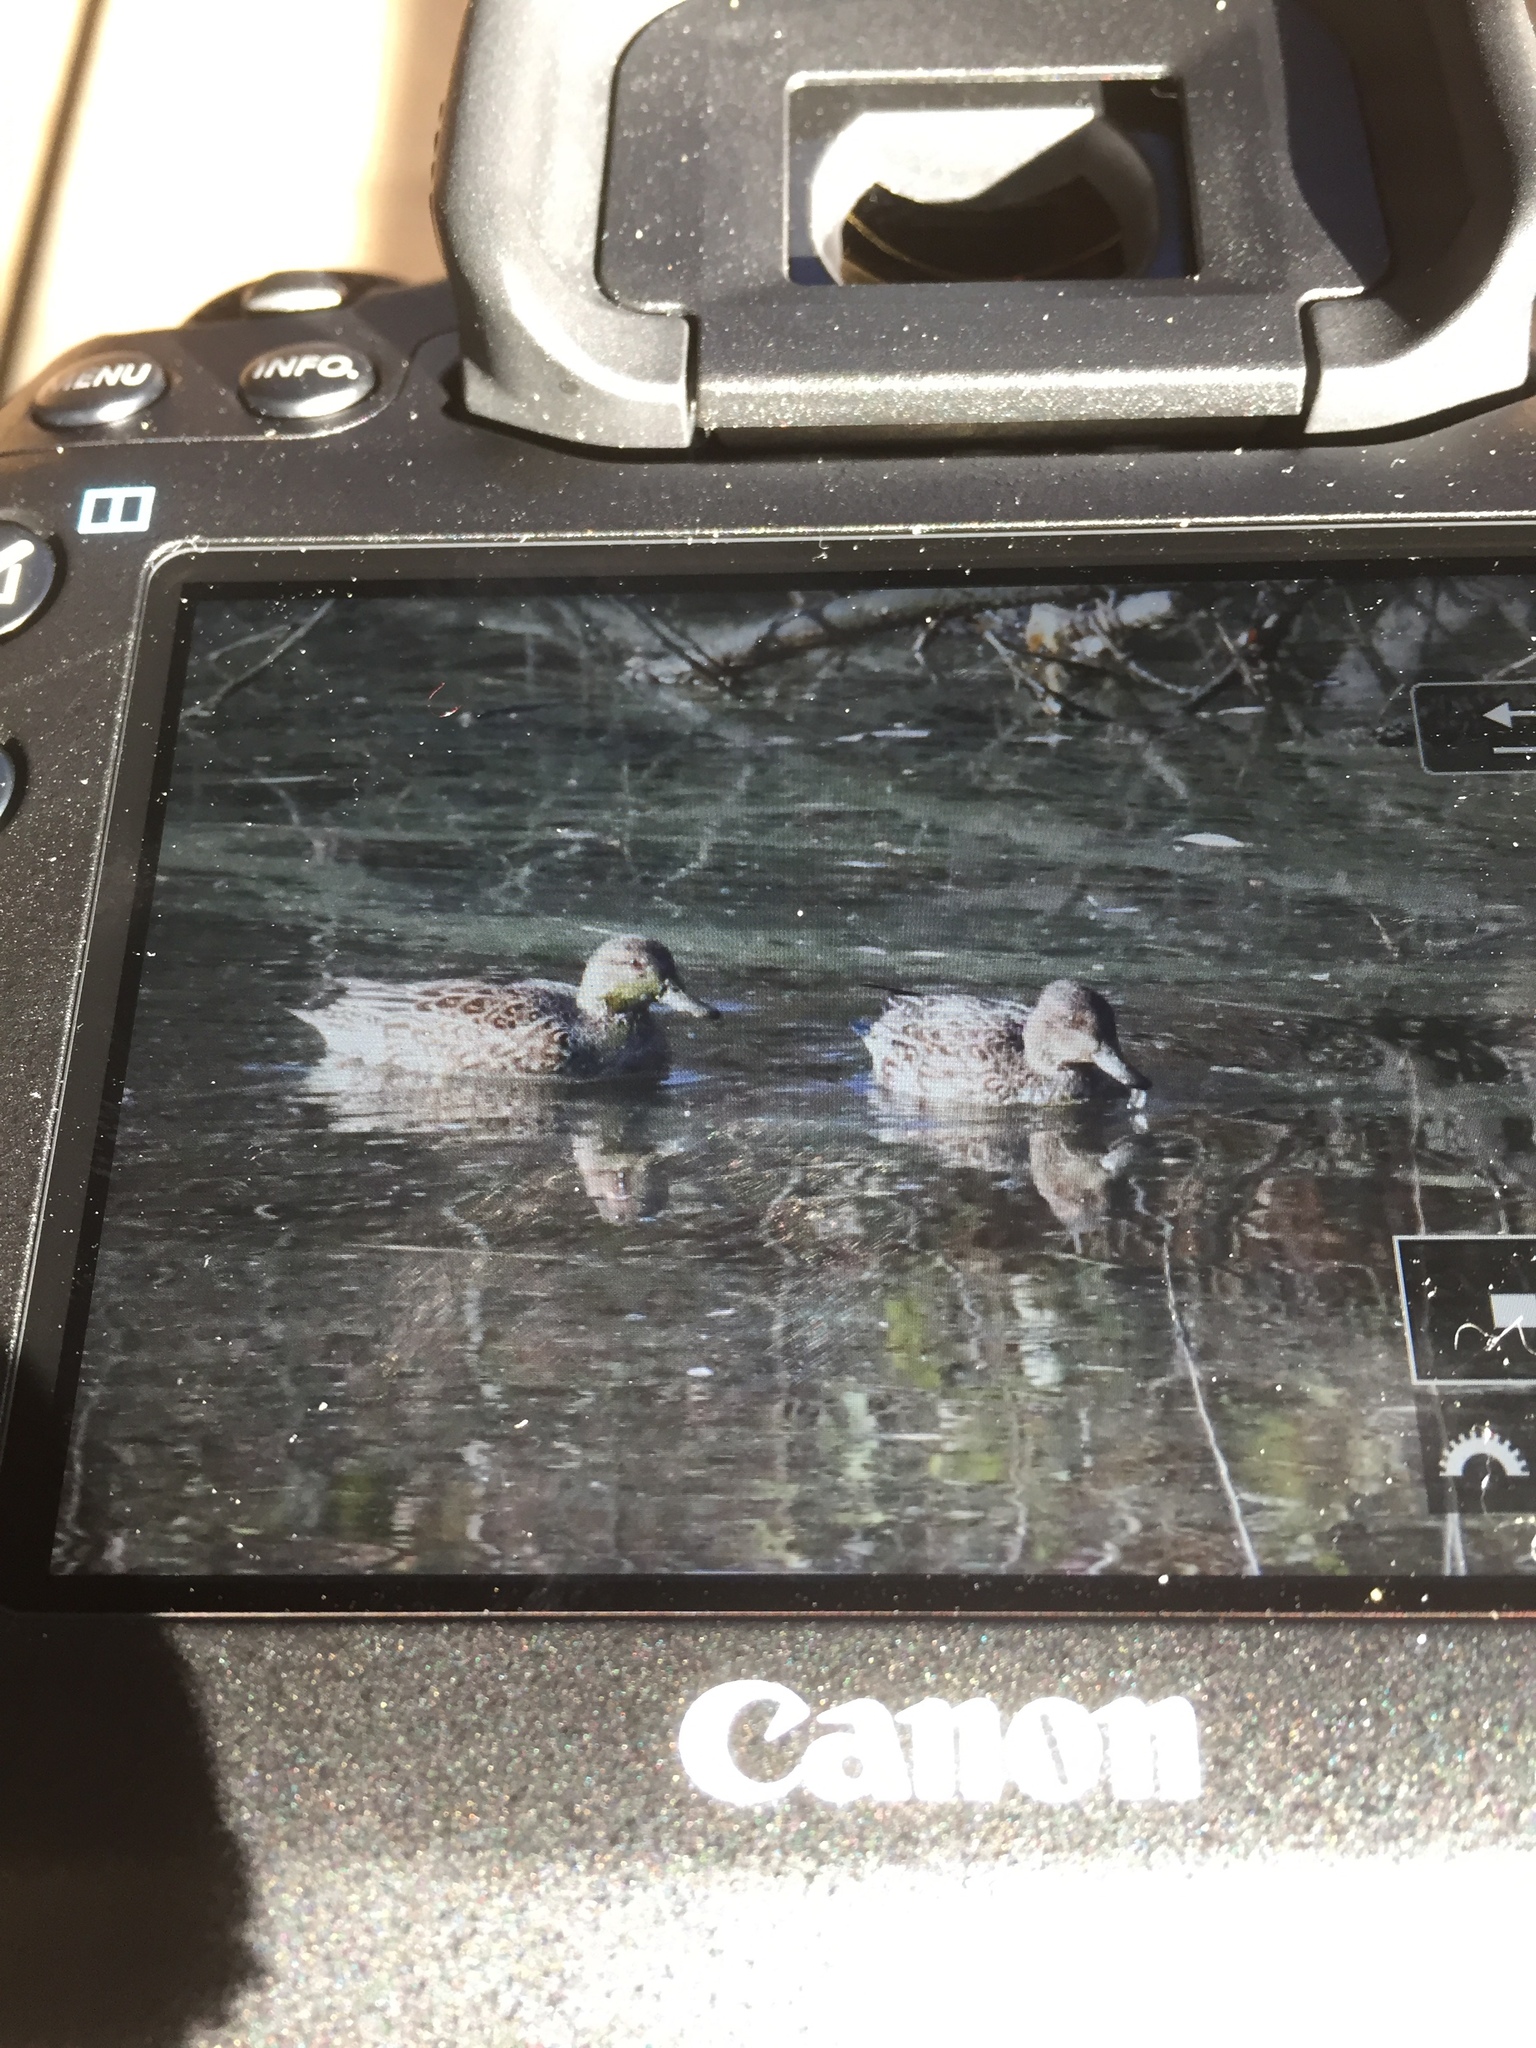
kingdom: Animalia
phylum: Chordata
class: Aves
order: Anseriformes
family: Anatidae
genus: Anas
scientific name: Anas crecca
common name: Eurasian teal
